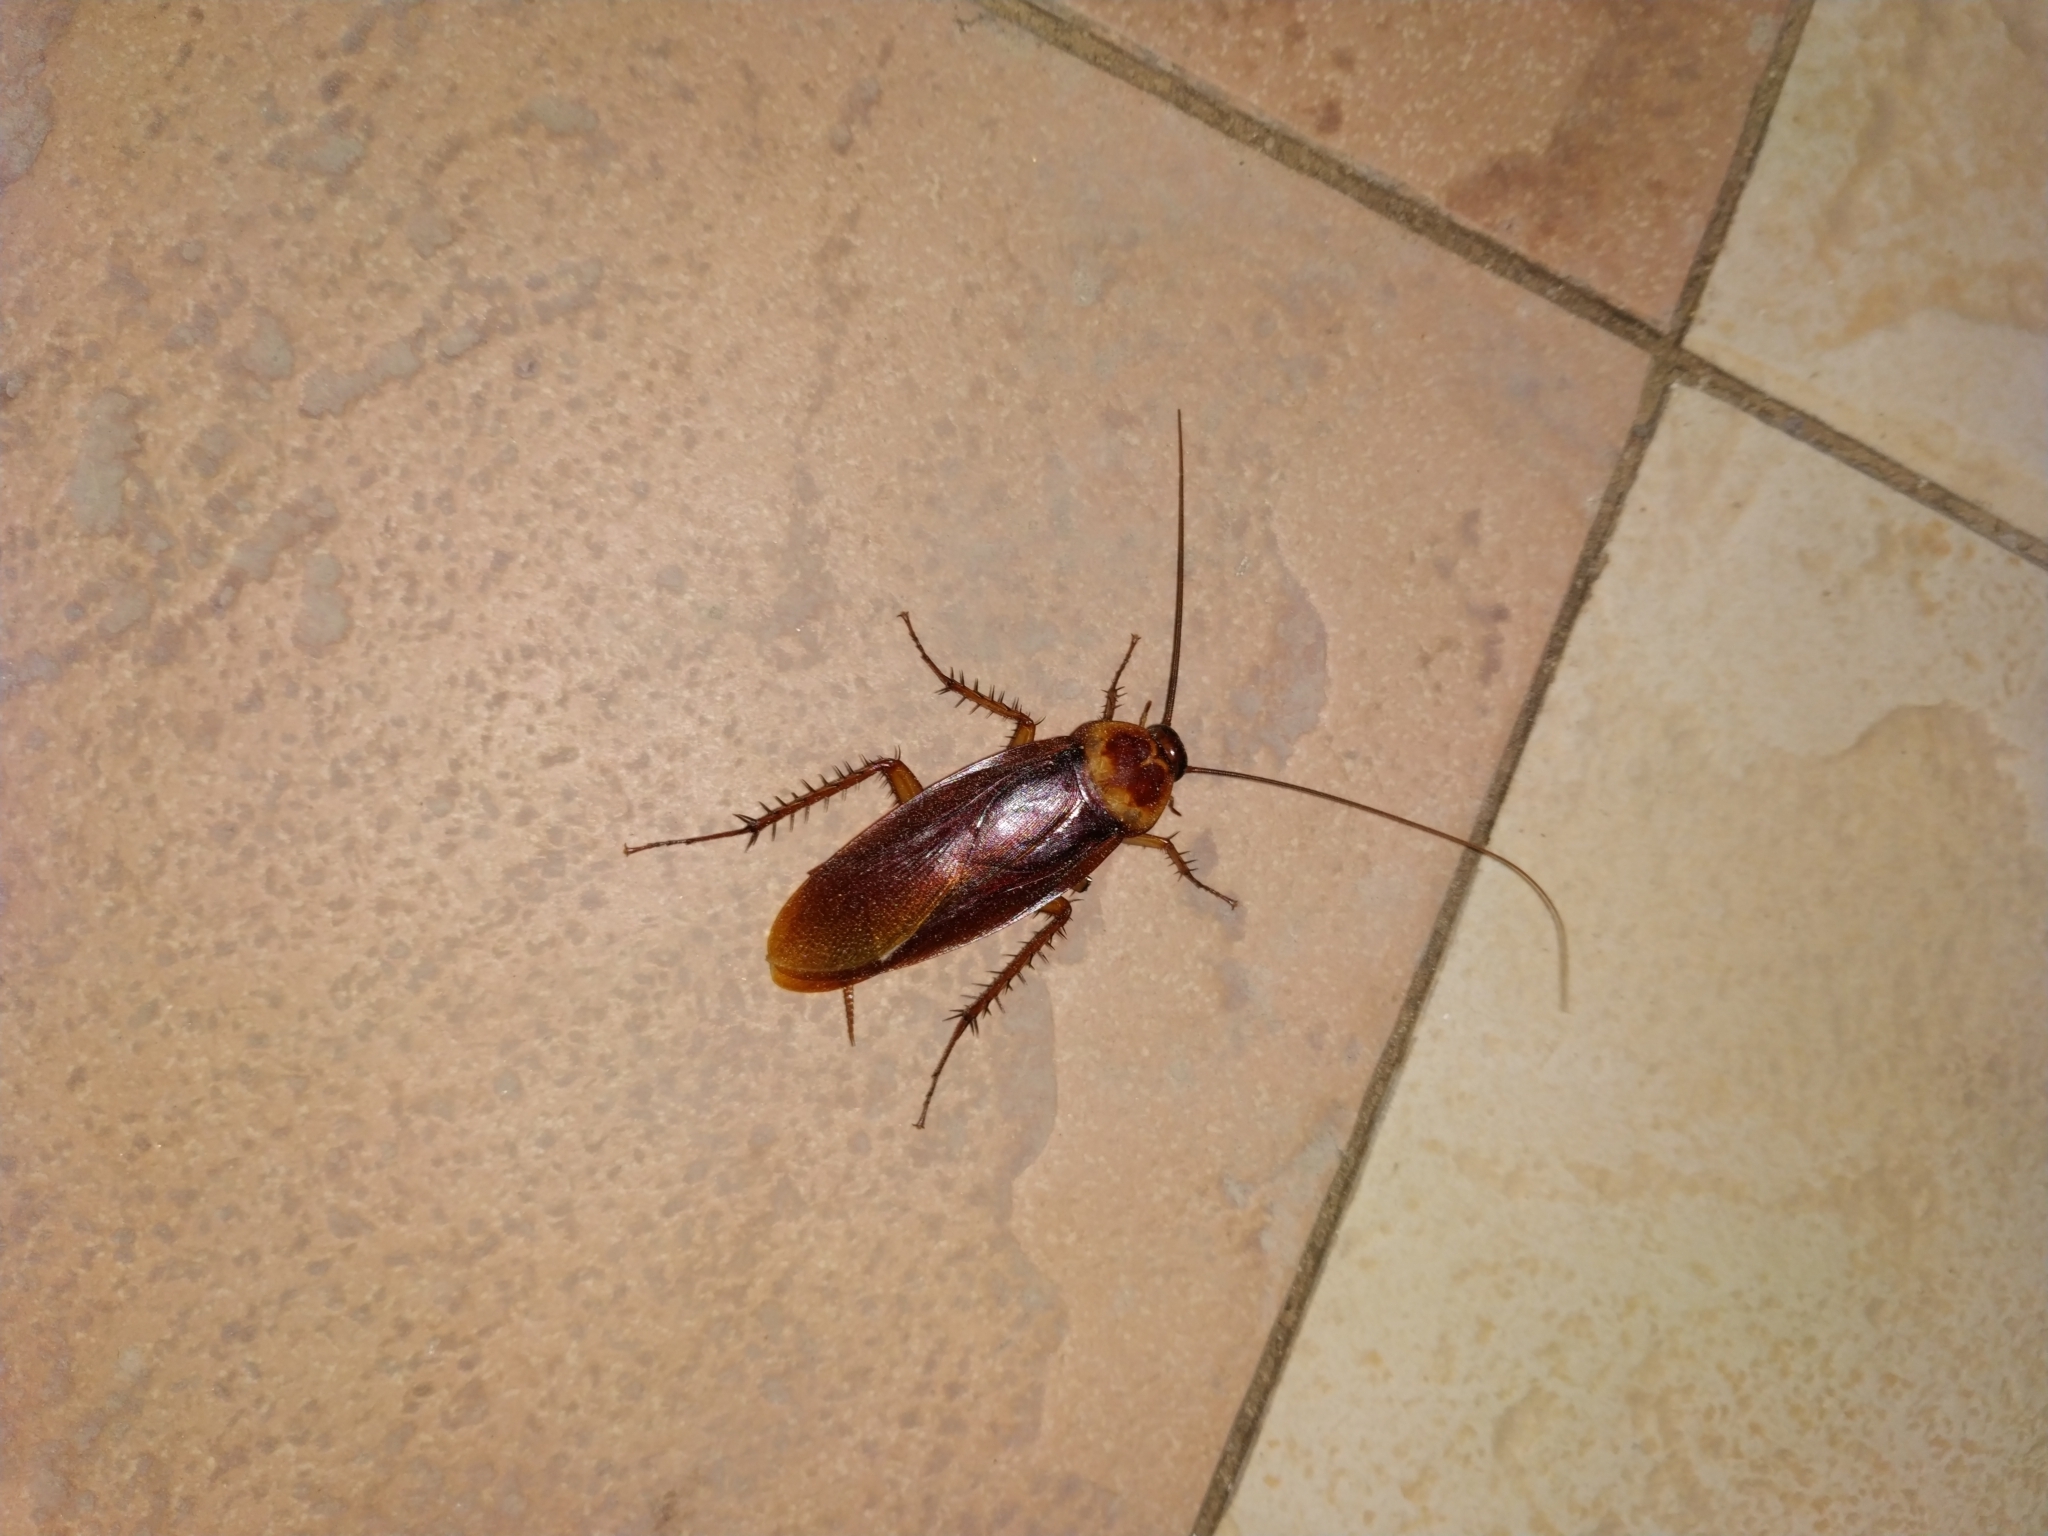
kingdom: Animalia
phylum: Arthropoda
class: Insecta
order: Blattodea
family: Blattidae
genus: Periplaneta
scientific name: Periplaneta americana
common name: American cockroach
